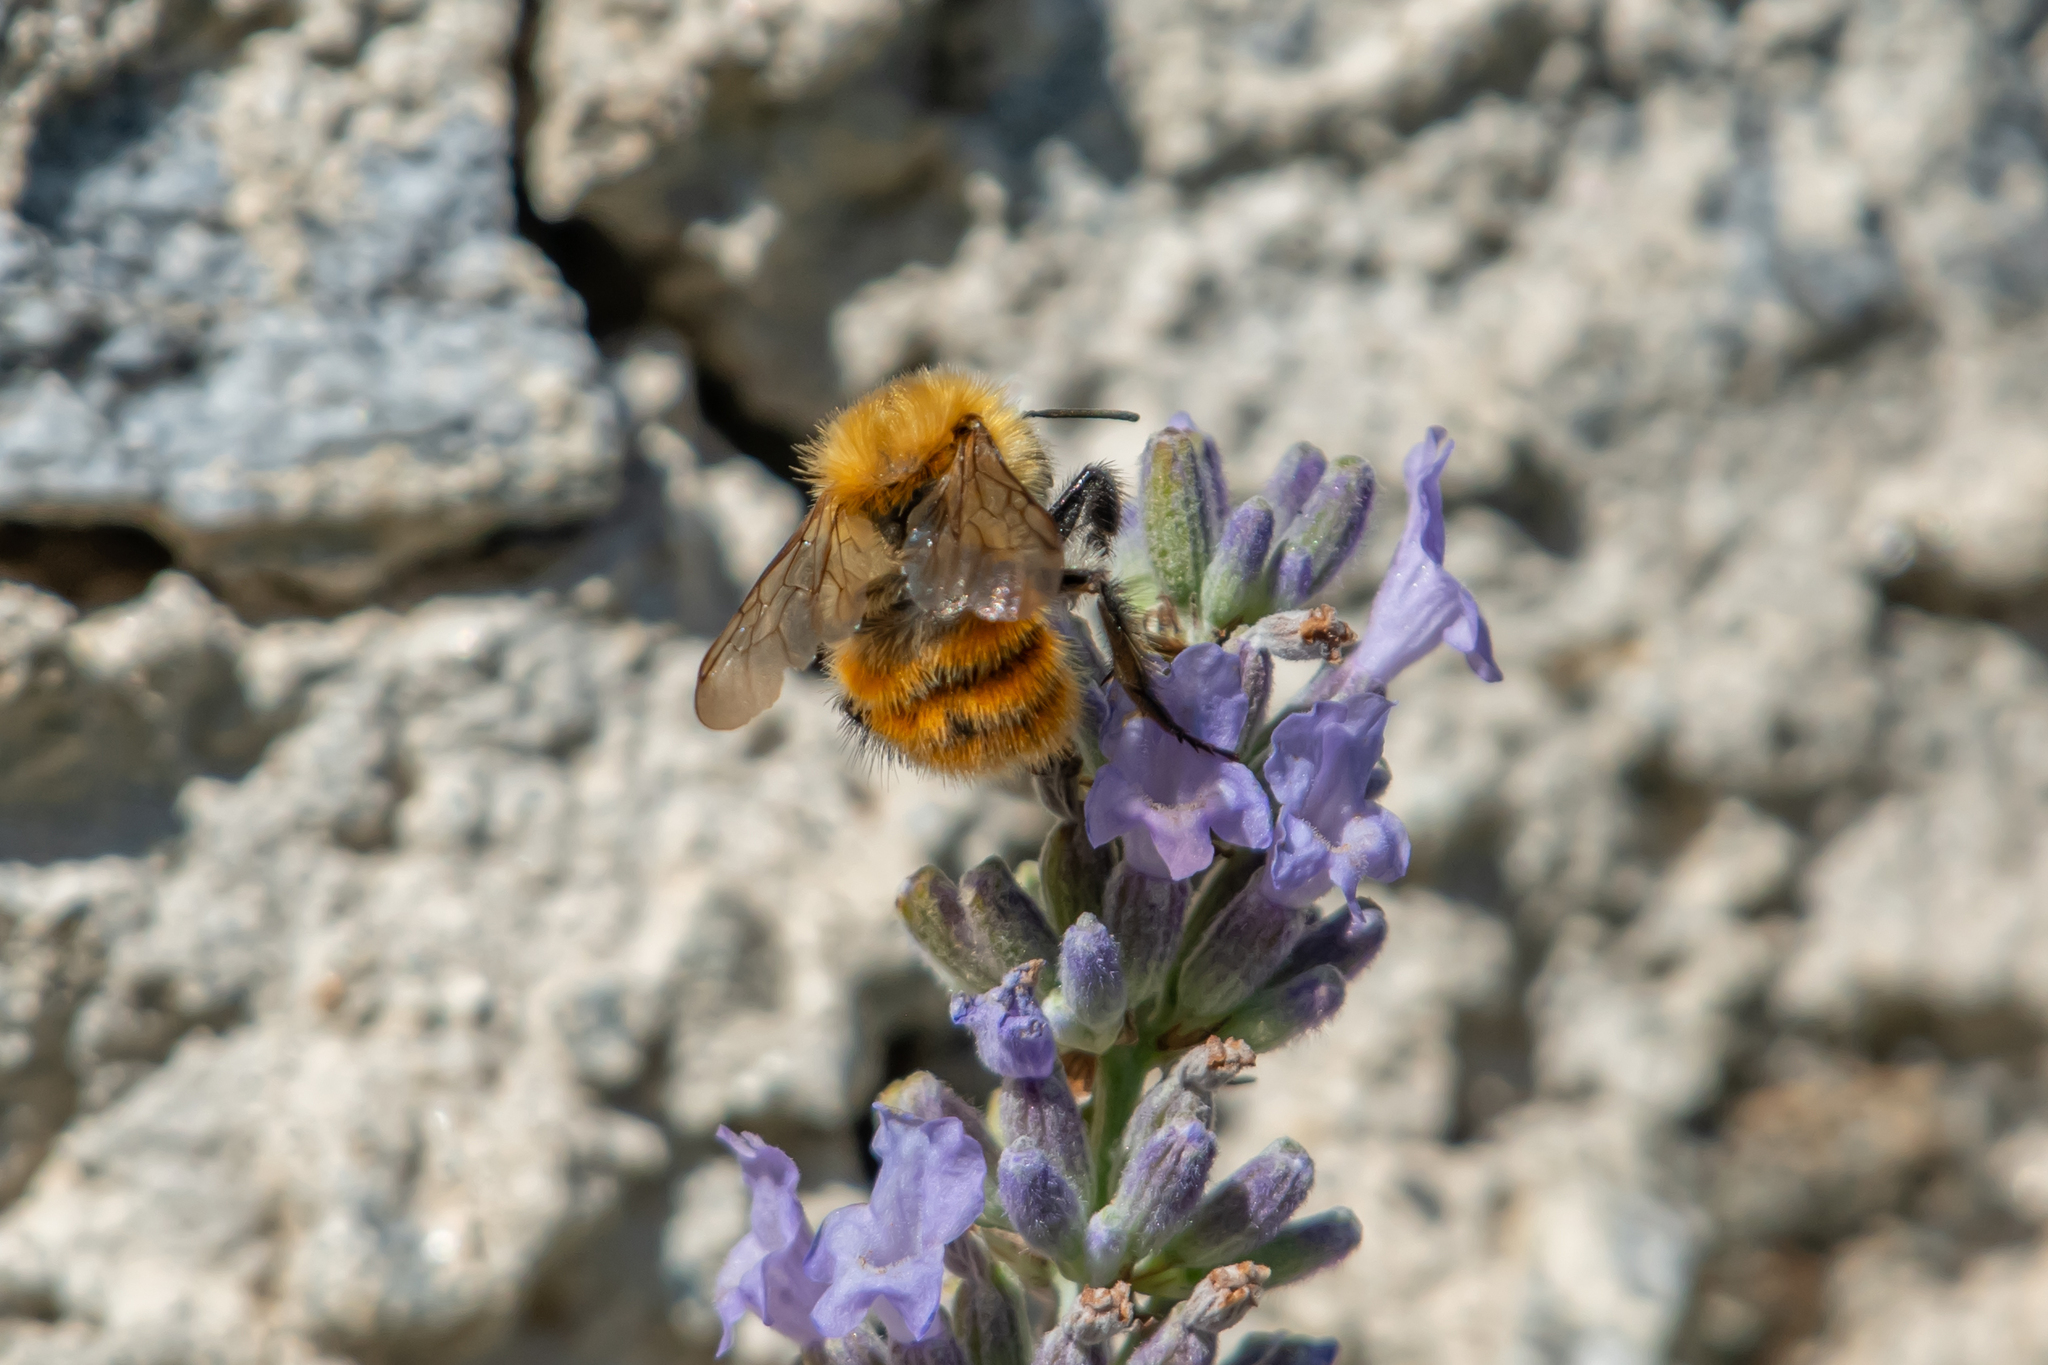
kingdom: Animalia
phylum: Arthropoda
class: Insecta
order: Hymenoptera
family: Apidae
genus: Bombus
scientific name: Bombus pascuorum
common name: Common carder bee
